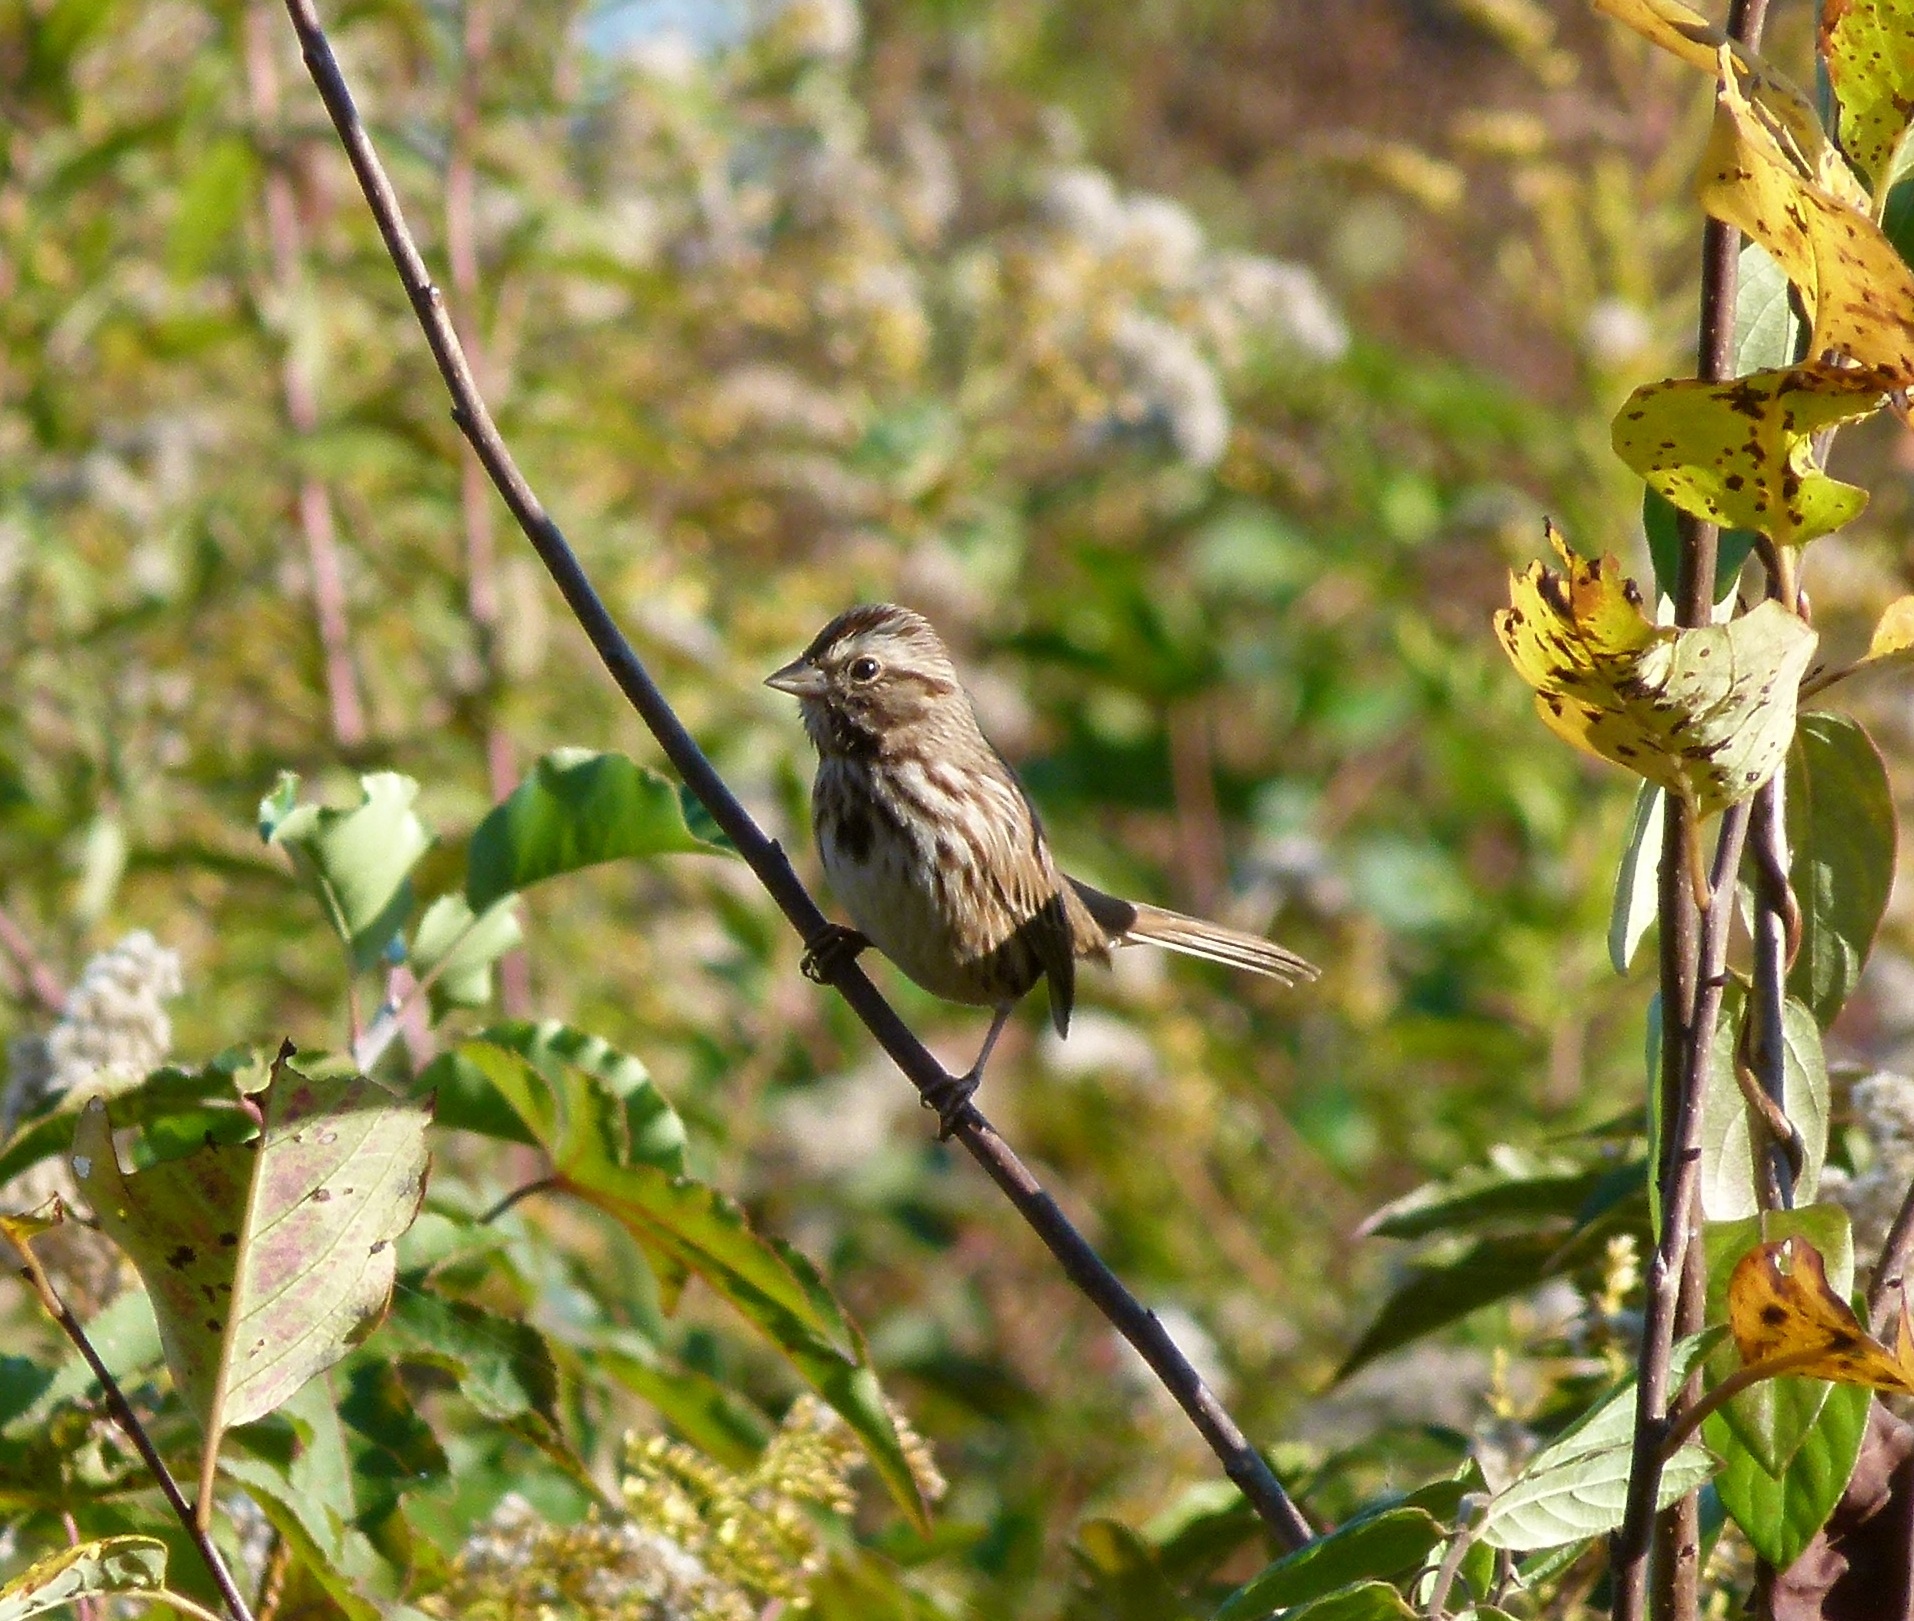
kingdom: Animalia
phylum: Chordata
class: Aves
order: Passeriformes
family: Passerellidae
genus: Melospiza
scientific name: Melospiza melodia
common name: Song sparrow
